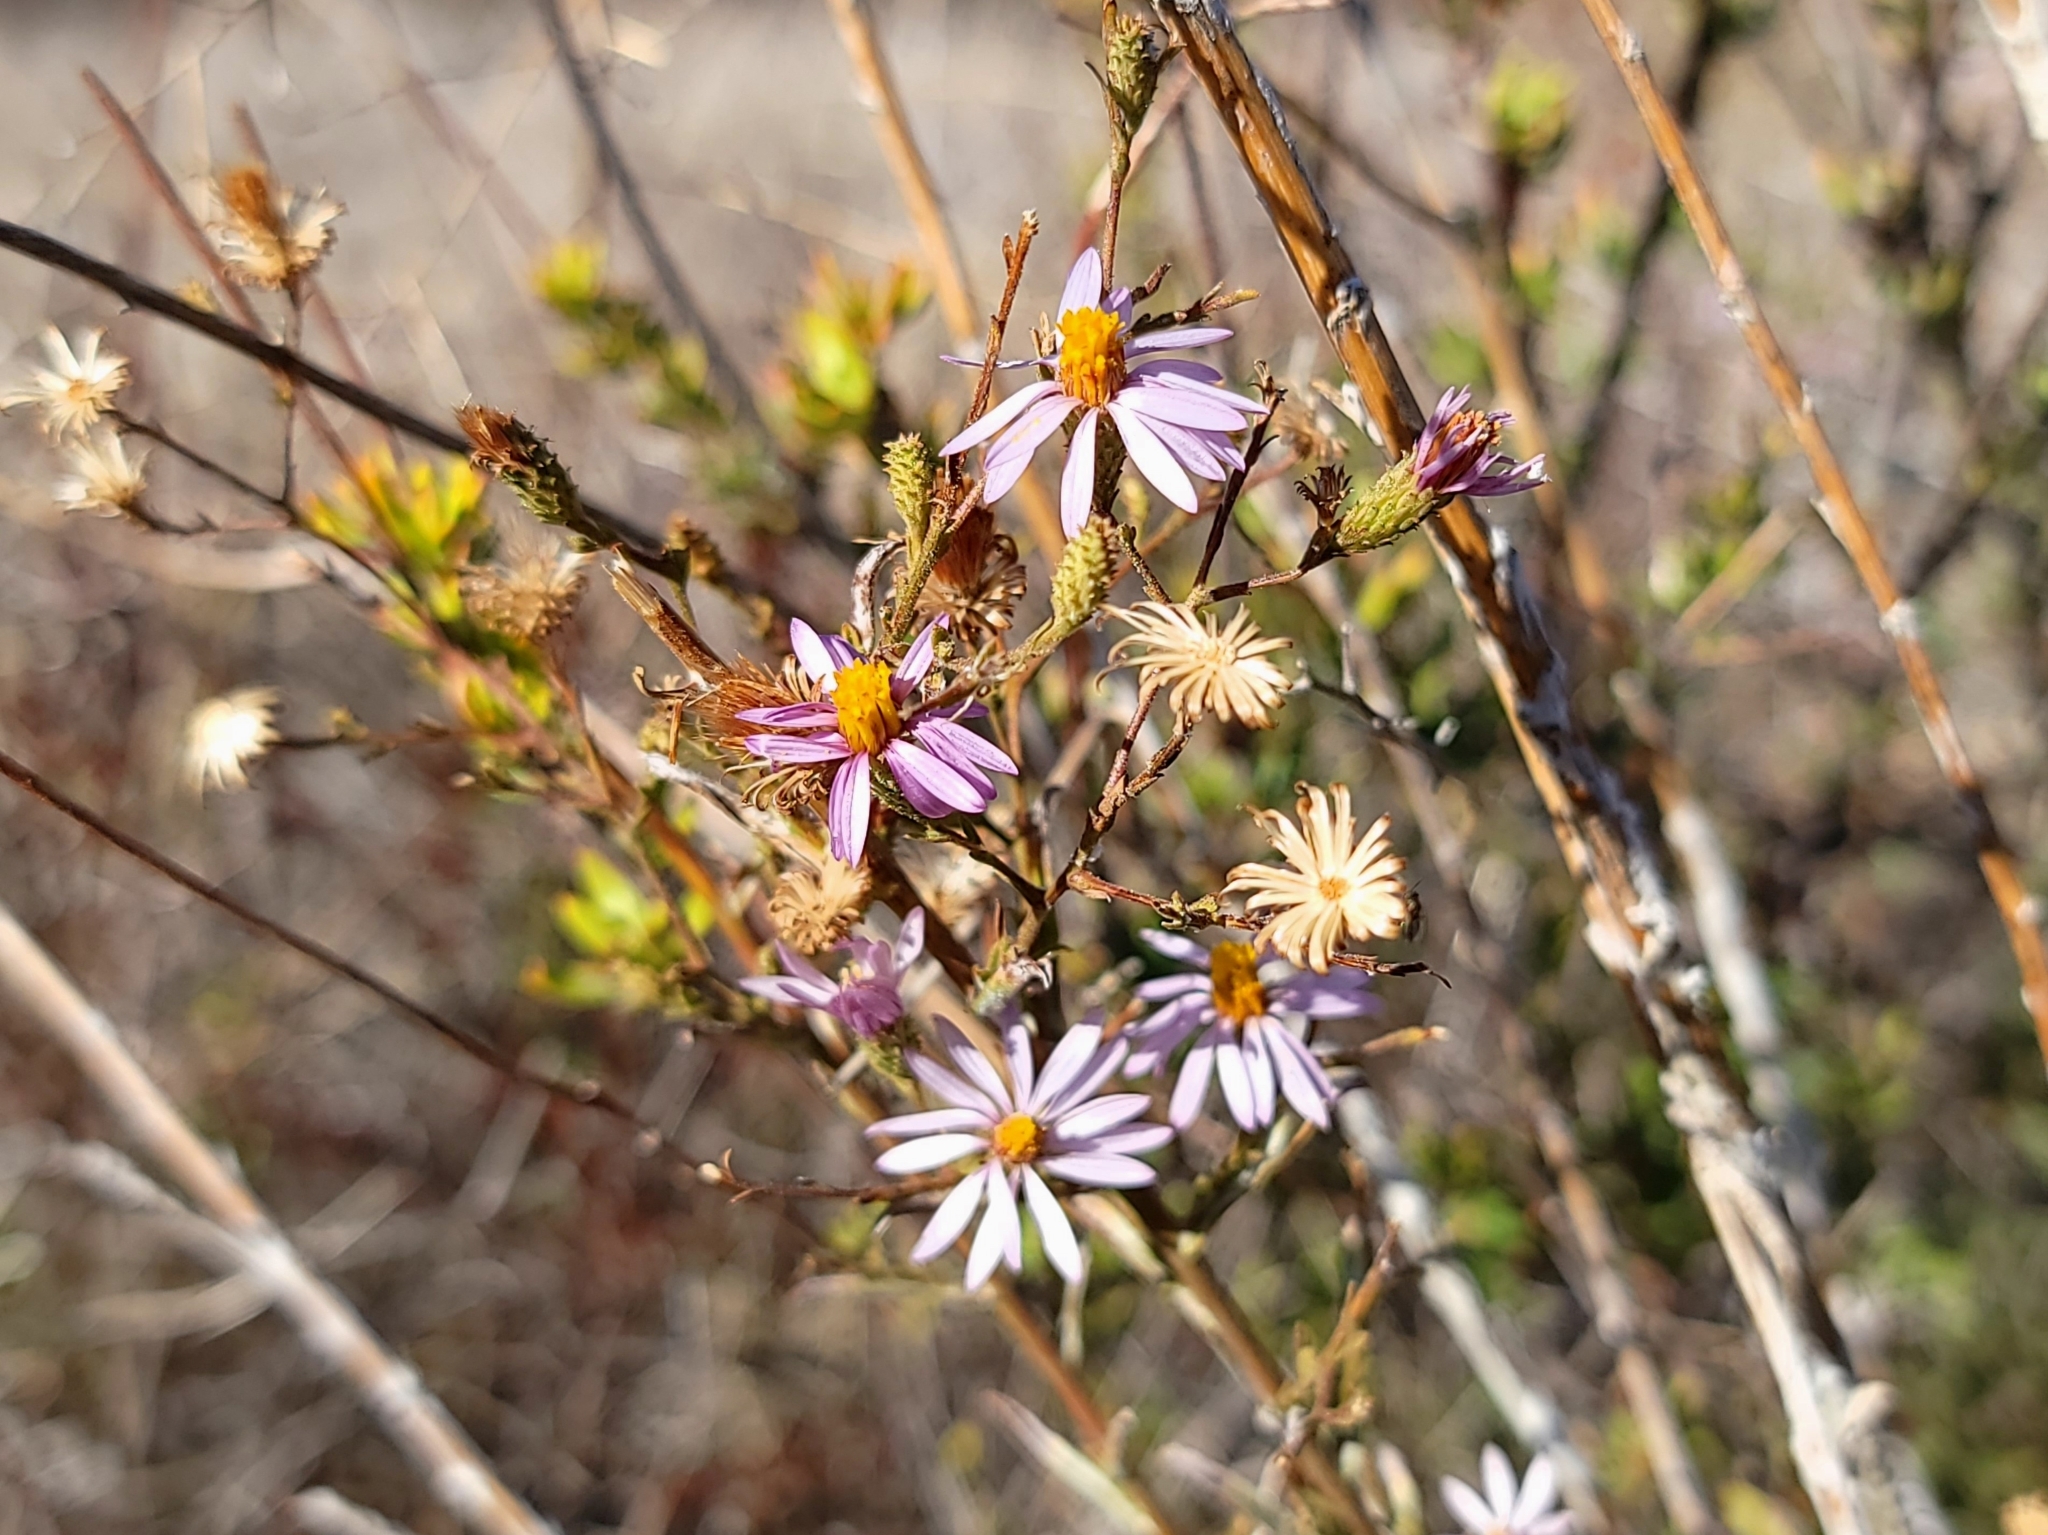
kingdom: Plantae
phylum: Tracheophyta
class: Magnoliopsida
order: Asterales
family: Asteraceae
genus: Corethrogyne
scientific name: Corethrogyne filaginifolia
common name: Sand-aster
